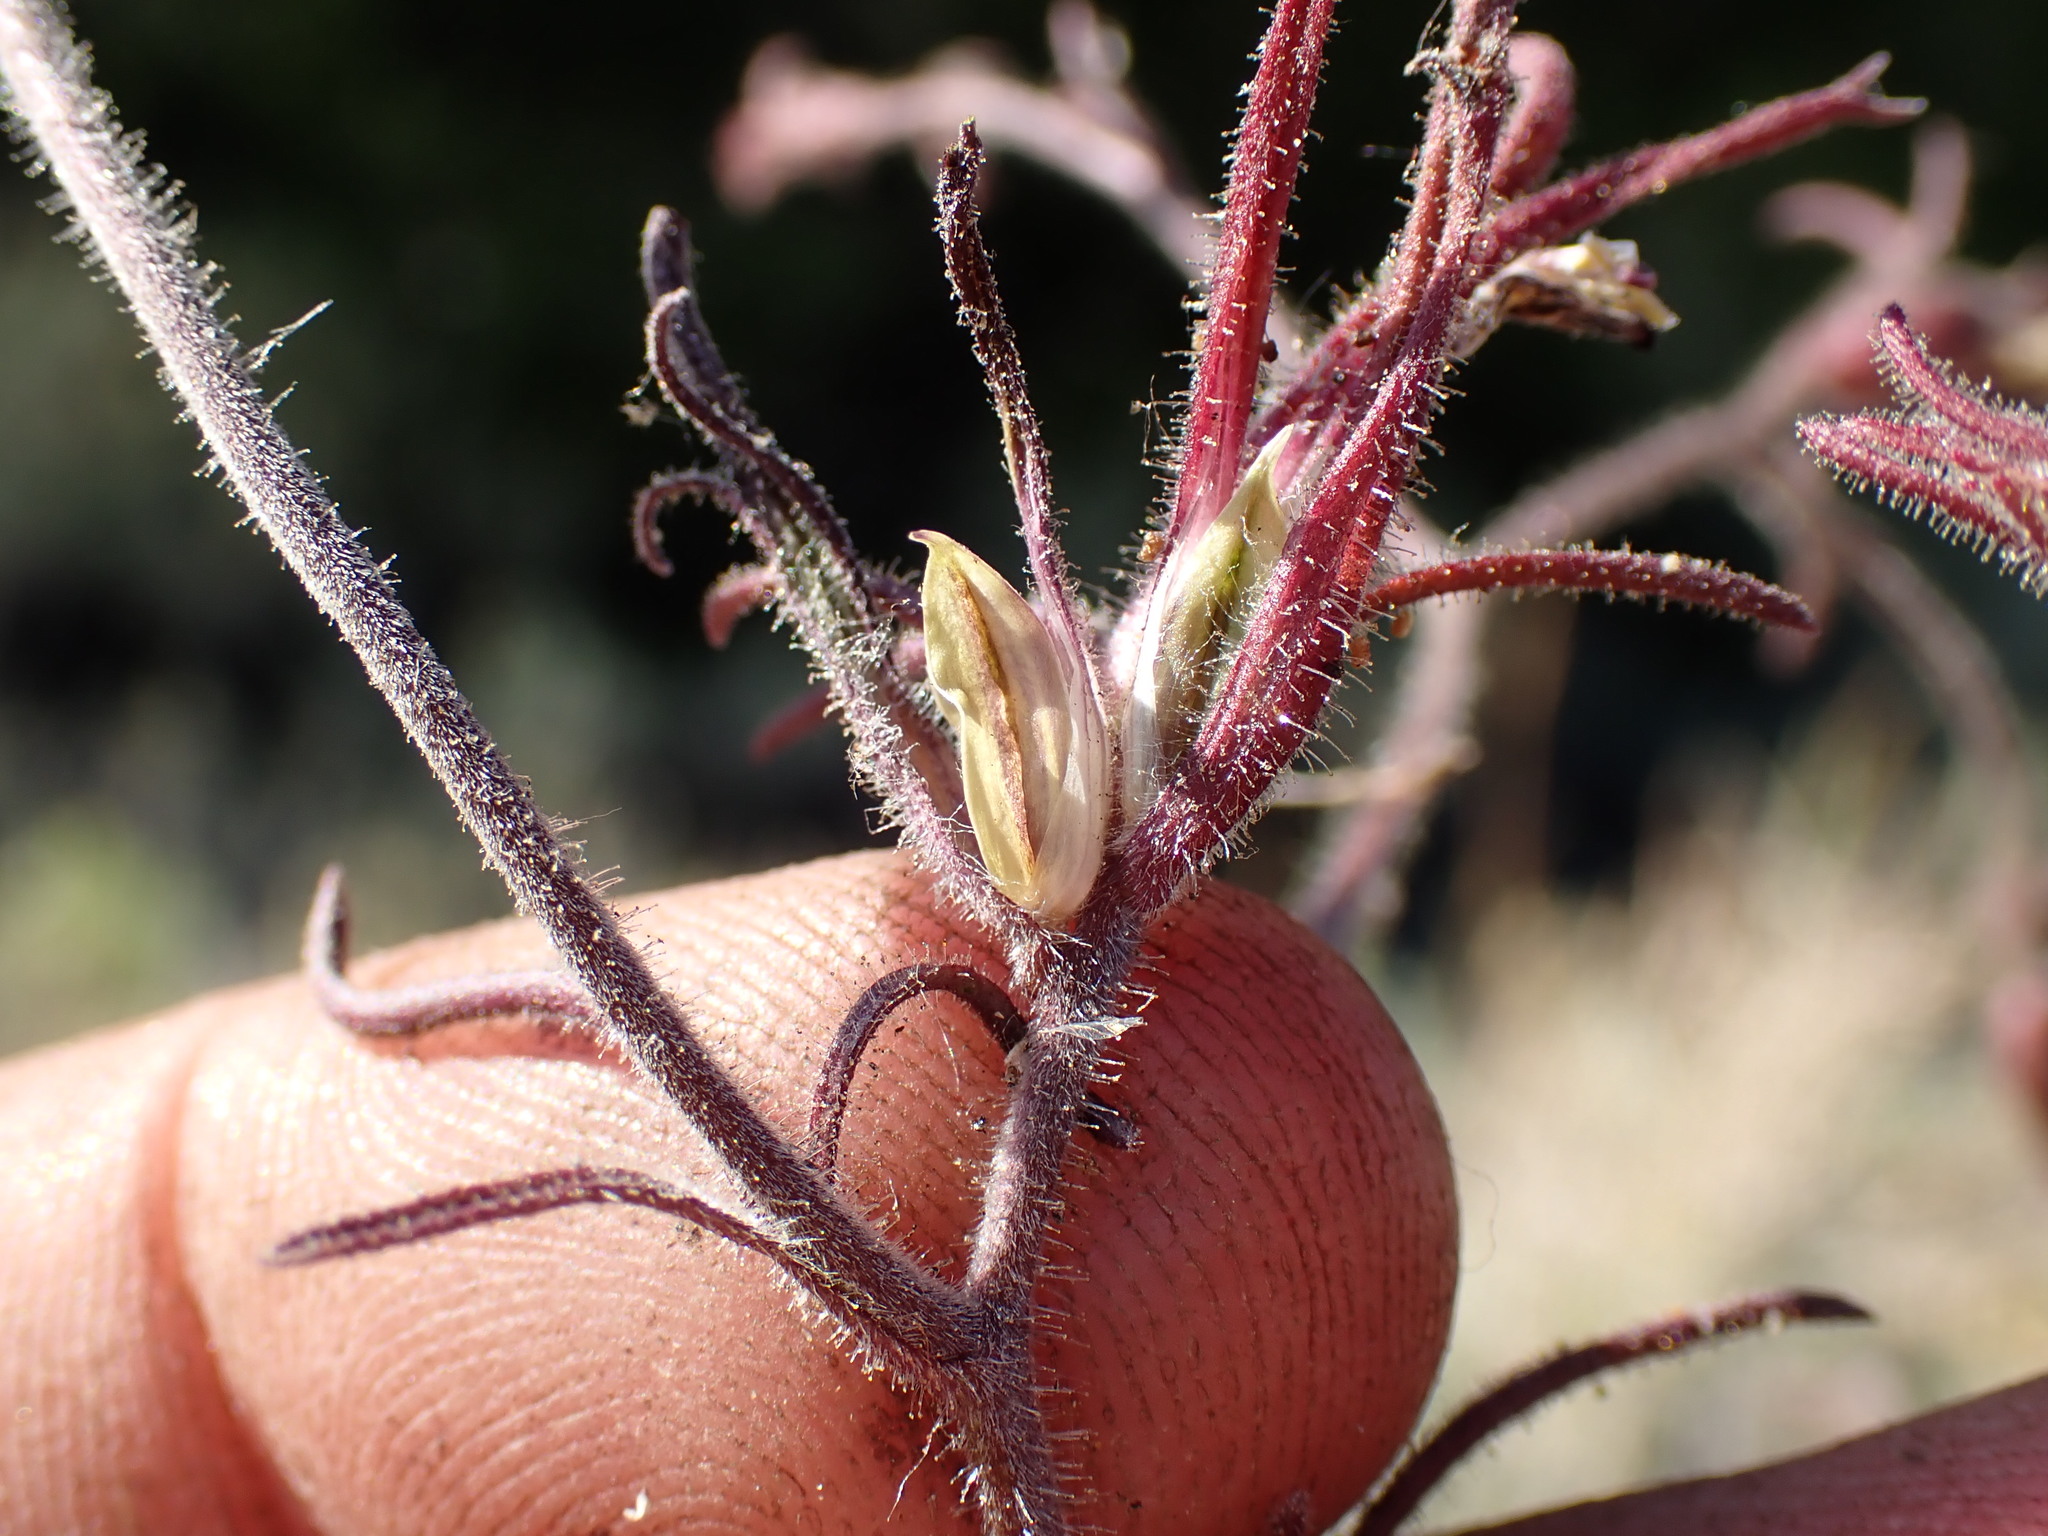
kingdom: Plantae
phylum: Tracheophyta
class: Magnoliopsida
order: Lamiales
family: Orobanchaceae
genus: Cordylanthus
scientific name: Cordylanthus kingii
